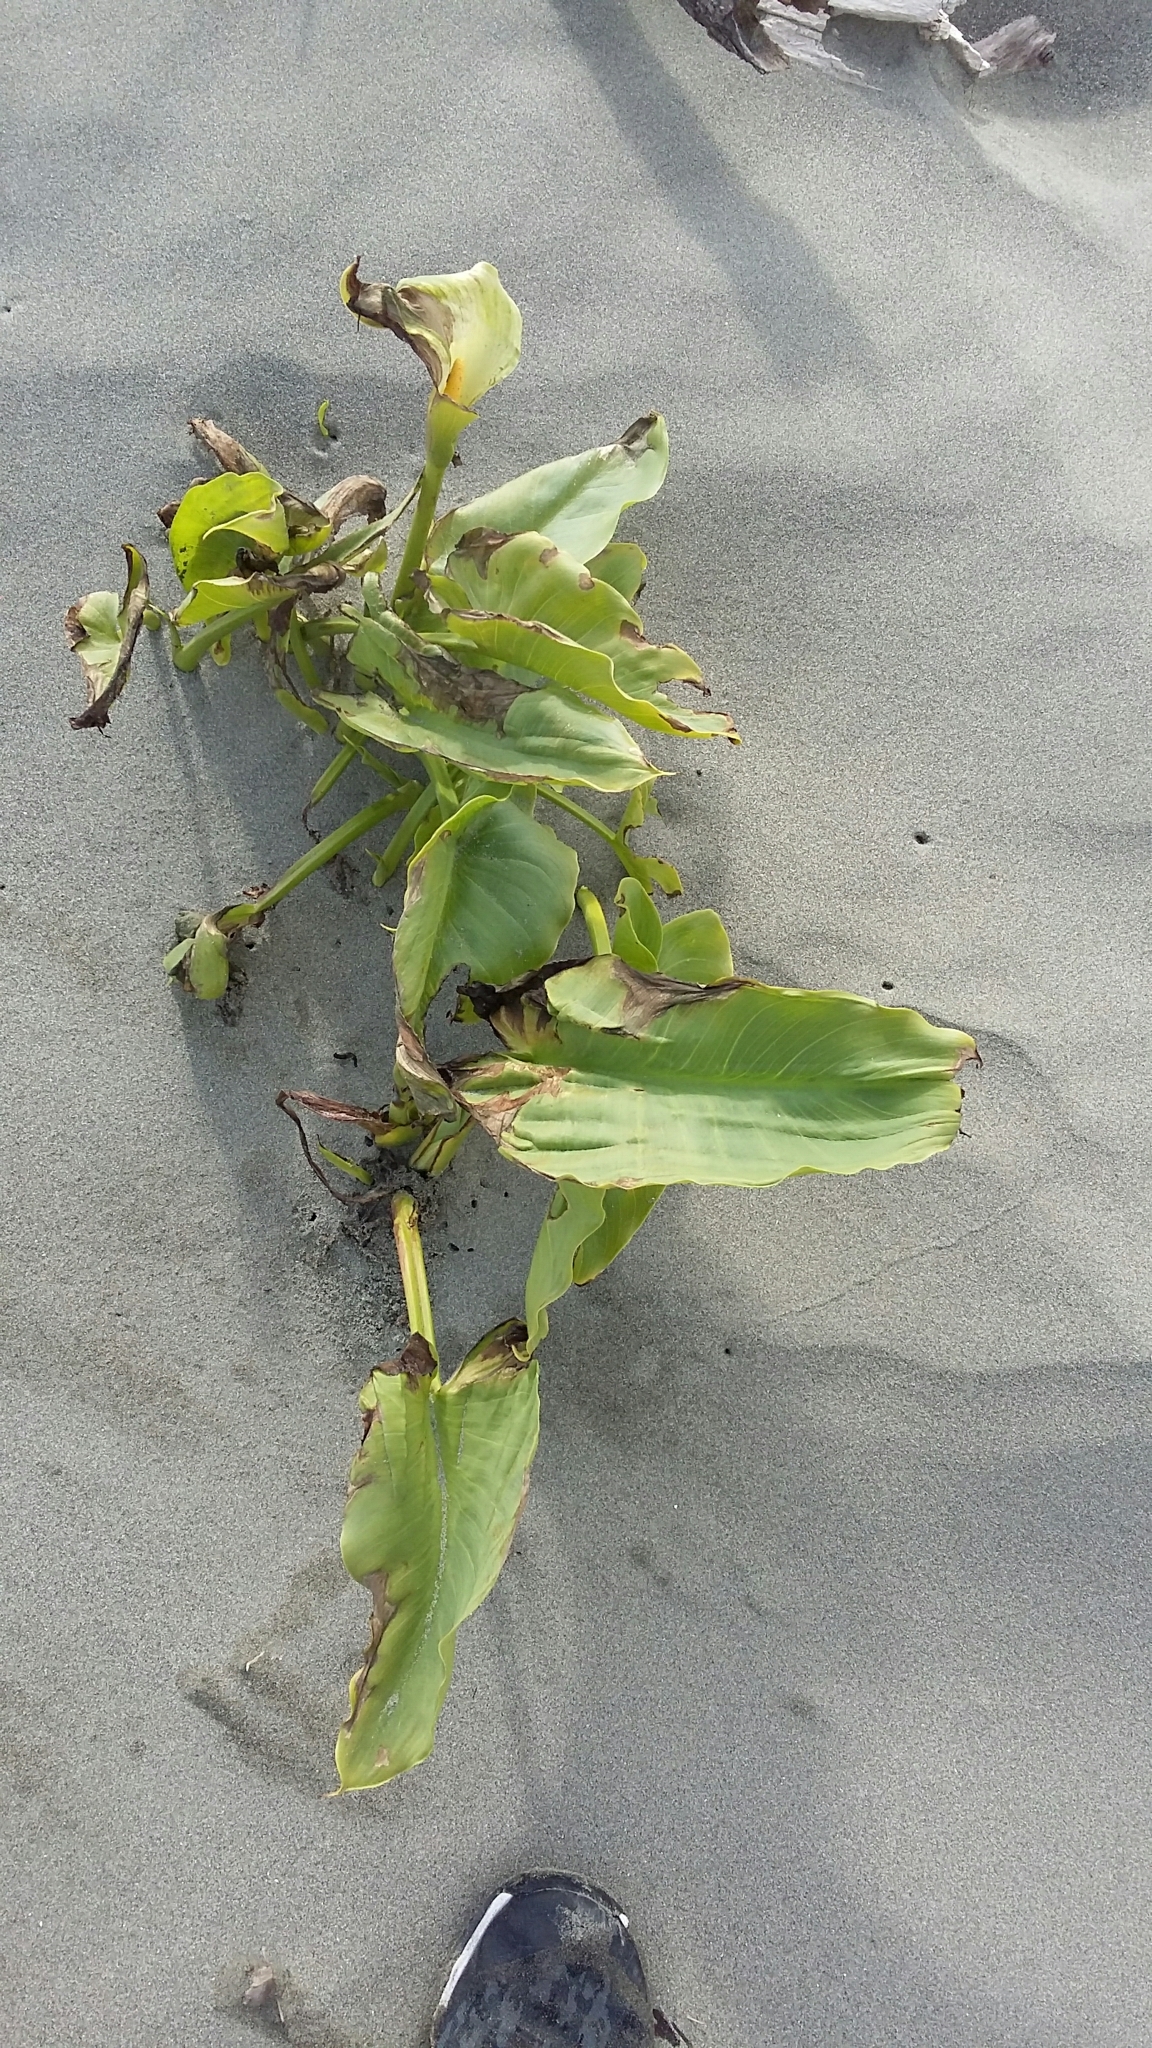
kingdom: Plantae
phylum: Tracheophyta
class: Liliopsida
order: Alismatales
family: Araceae
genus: Zantedeschia
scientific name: Zantedeschia aethiopica
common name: Altar-lily
